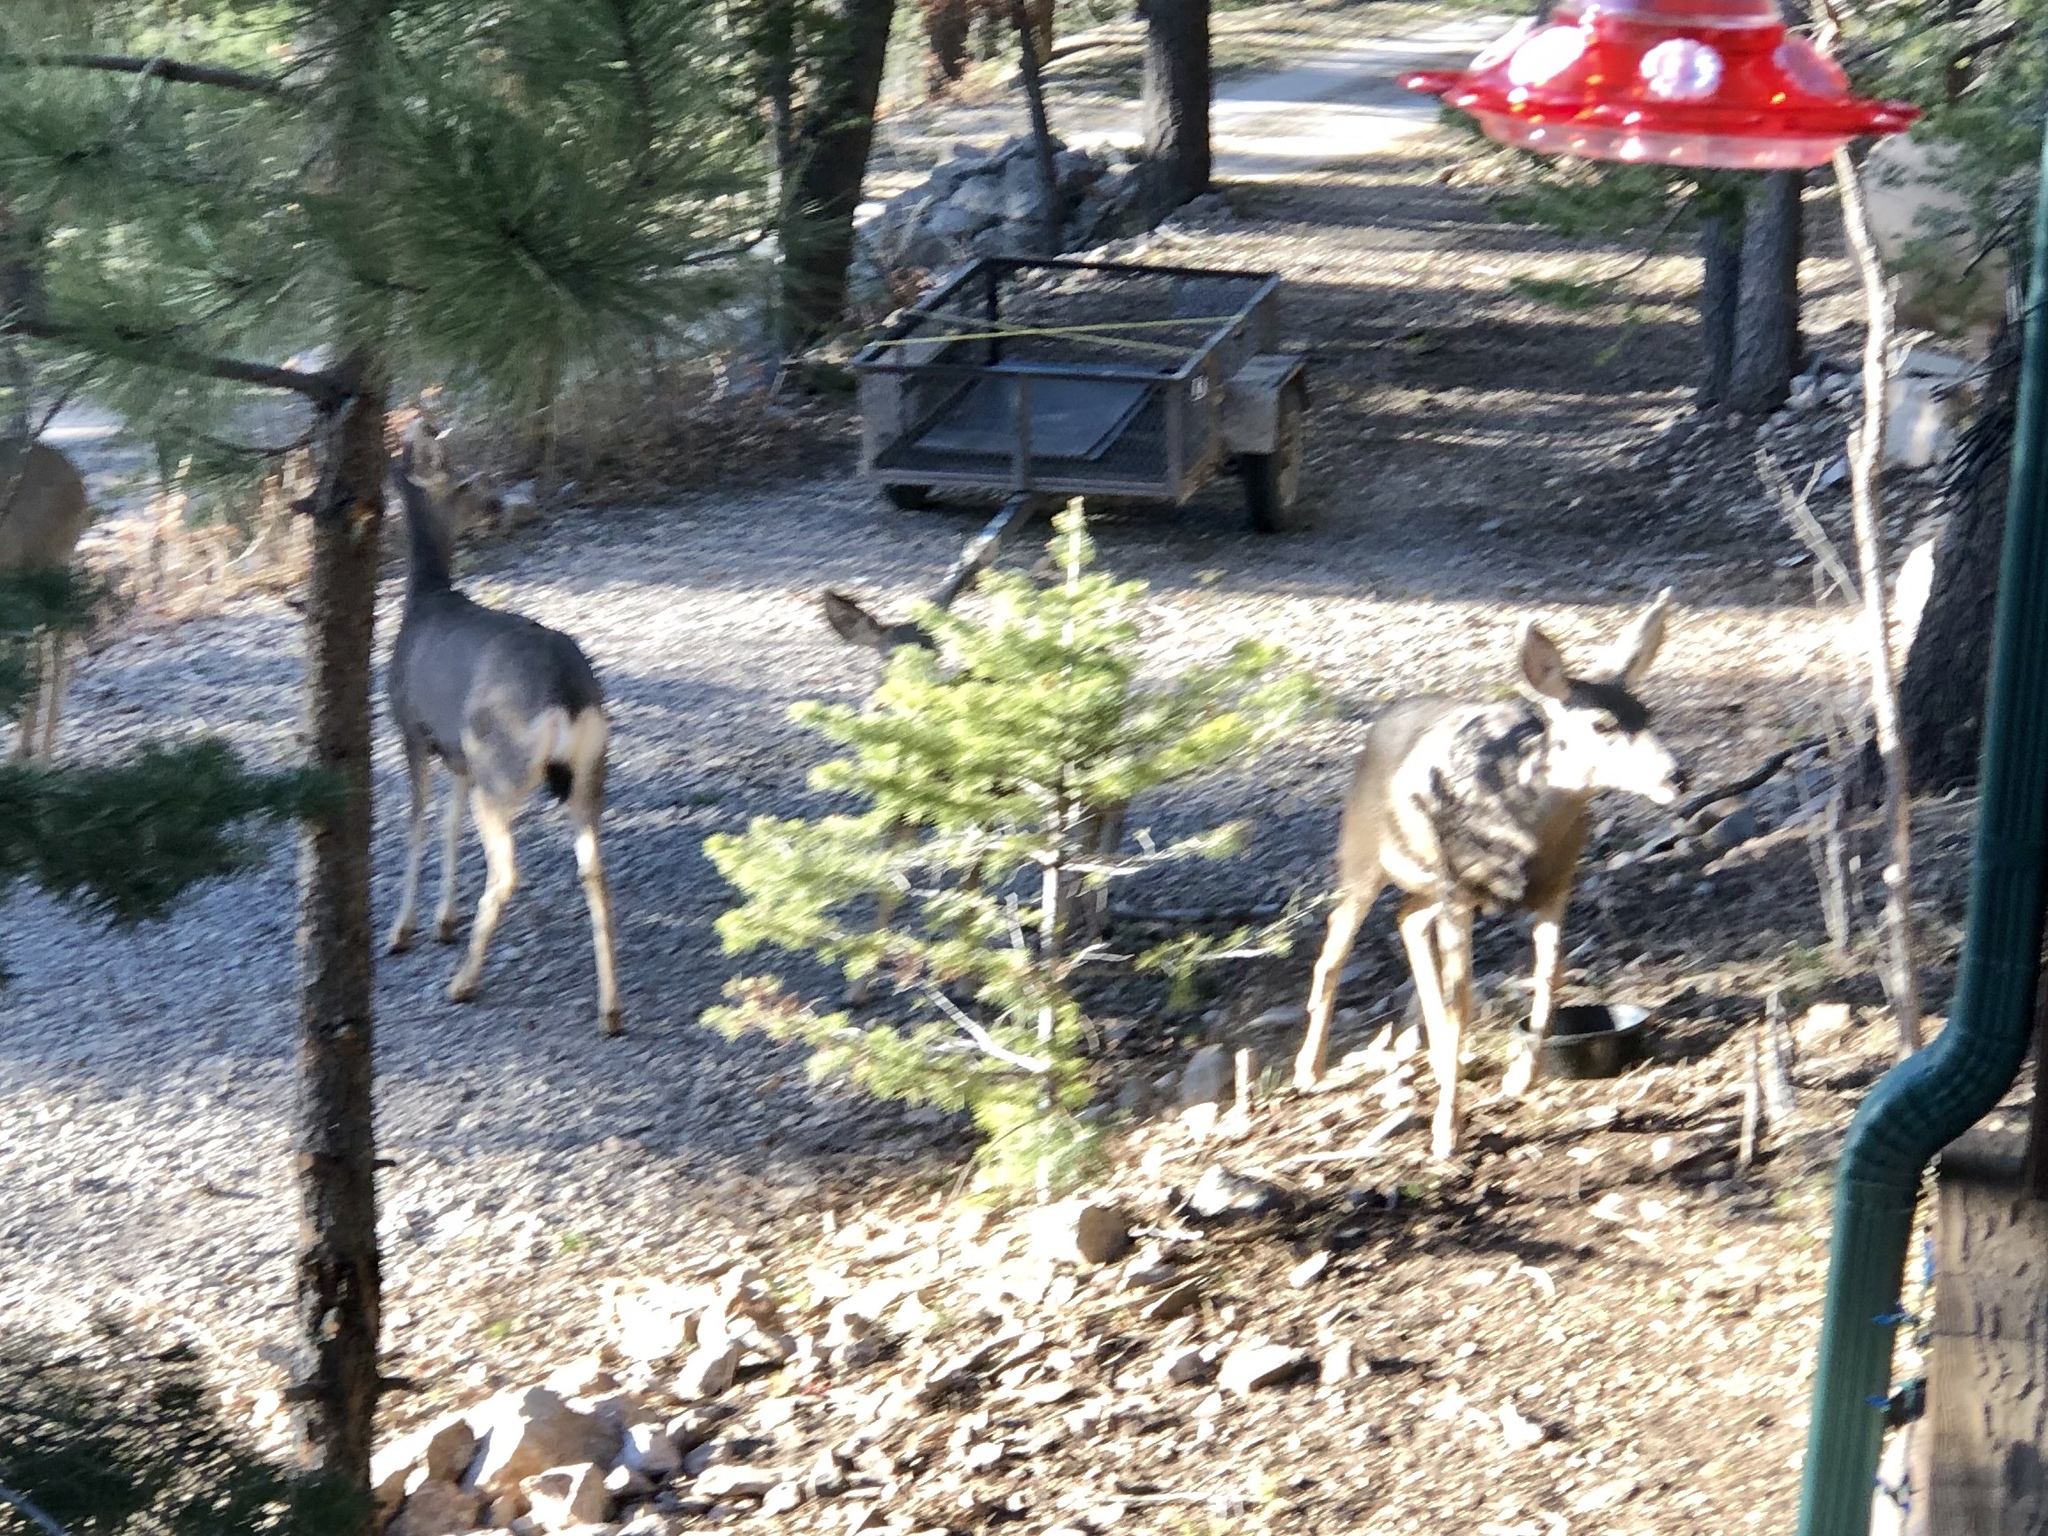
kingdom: Animalia
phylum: Chordata
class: Mammalia
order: Artiodactyla
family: Cervidae
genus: Odocoileus
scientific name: Odocoileus hemionus
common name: Mule deer
